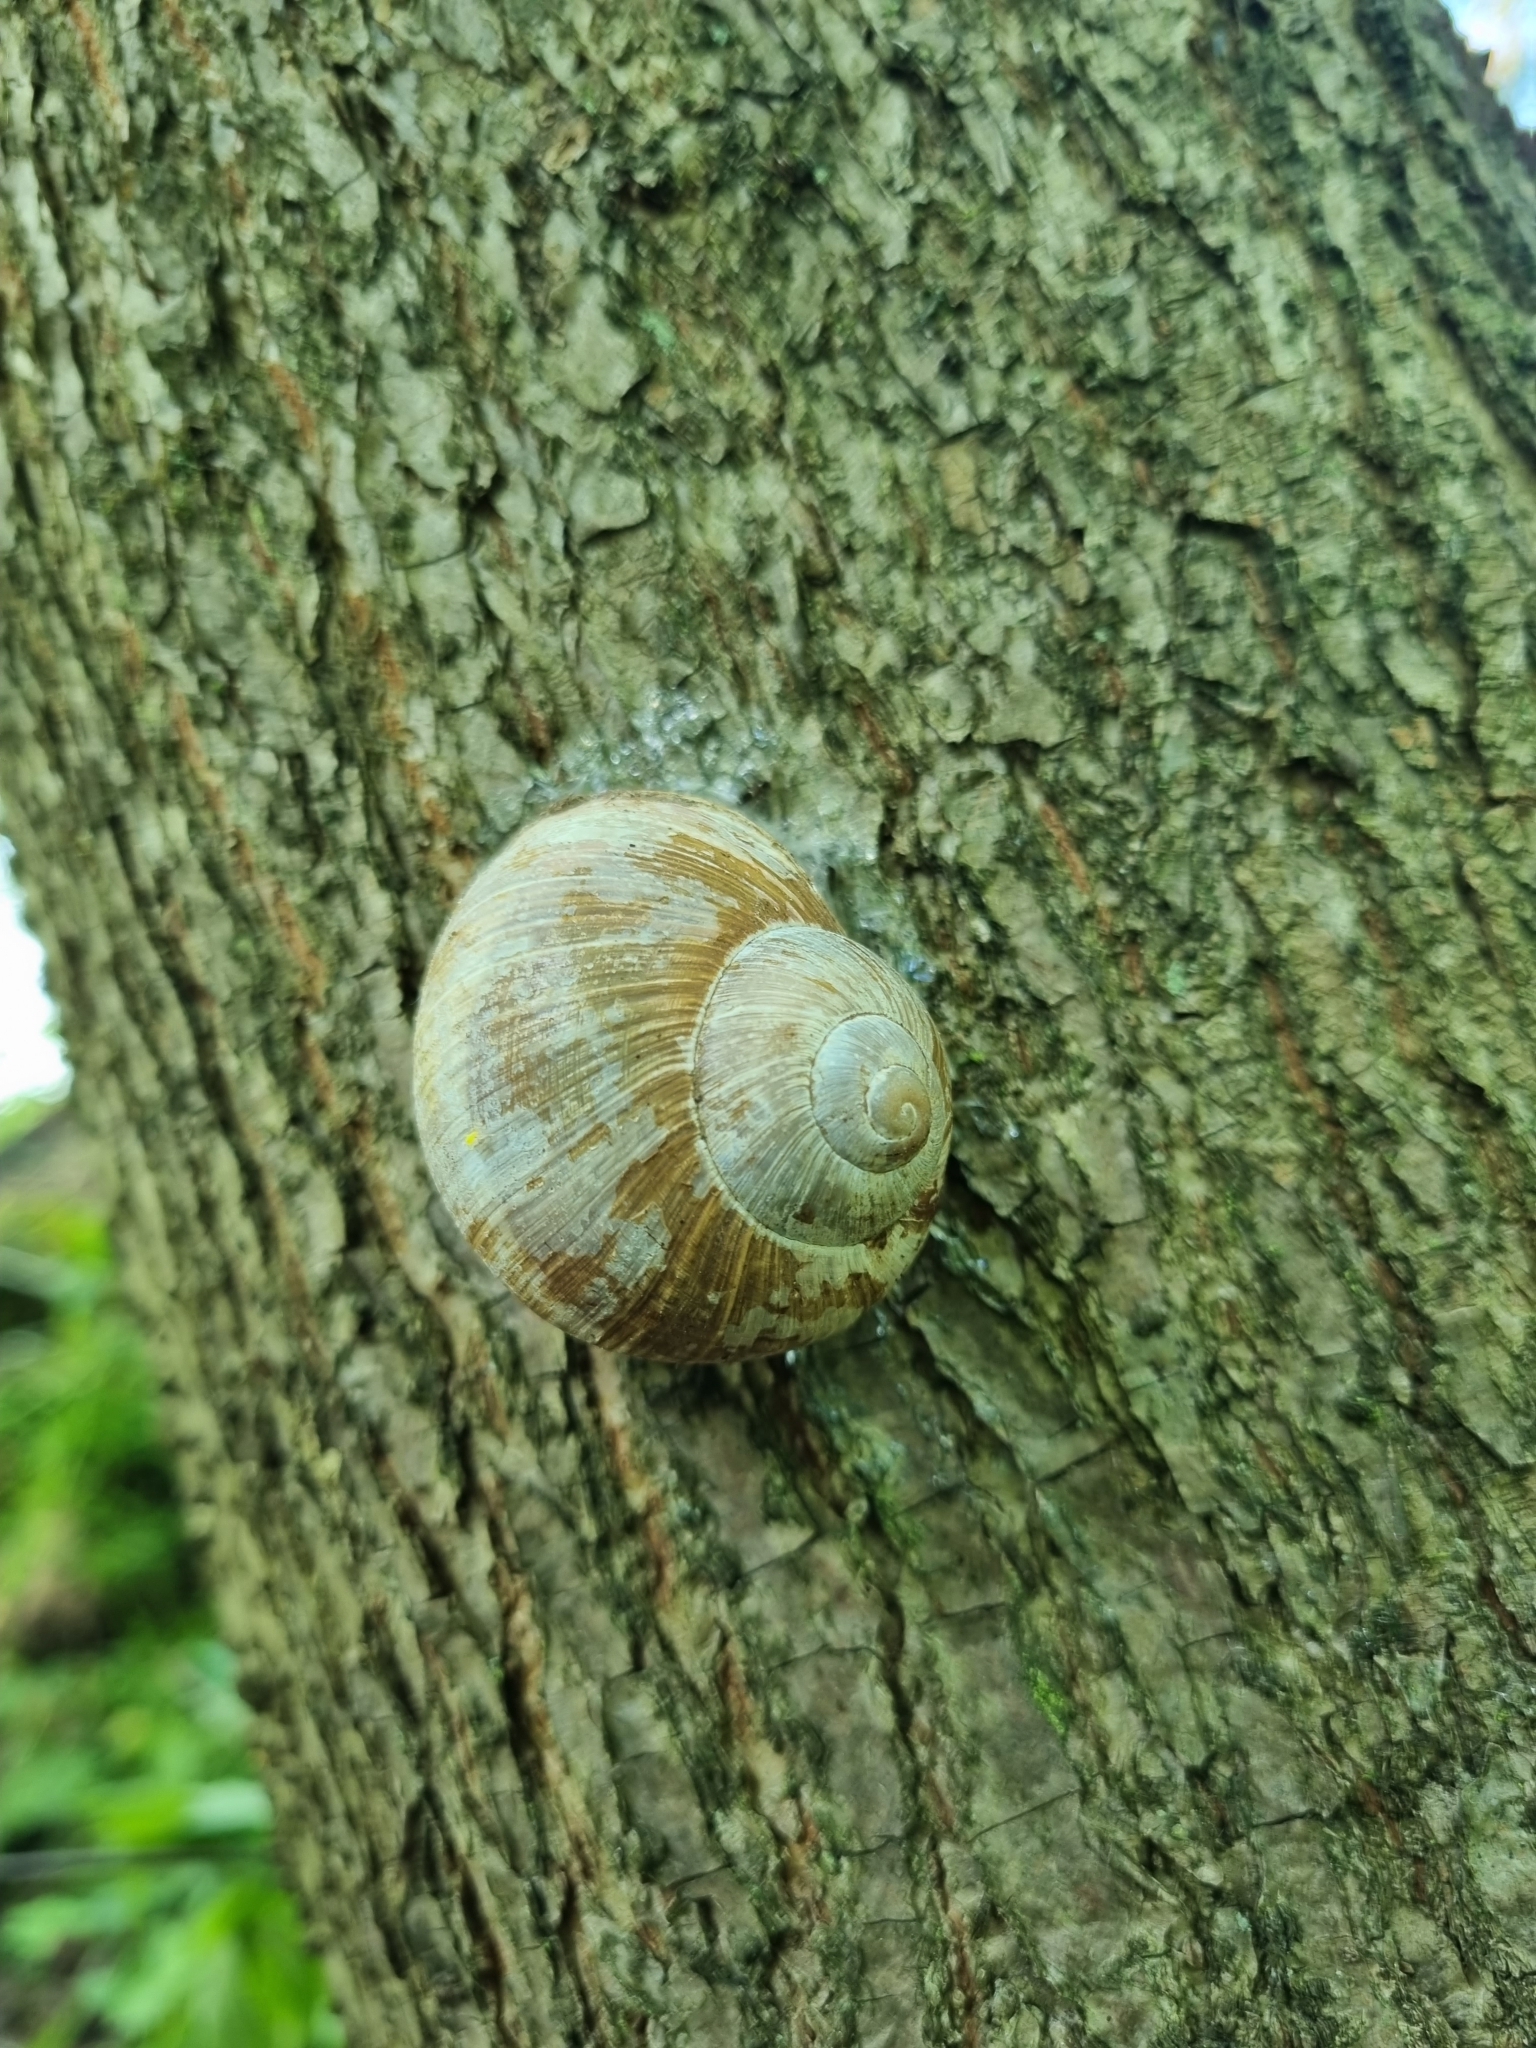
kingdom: Animalia
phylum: Mollusca
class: Gastropoda
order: Stylommatophora
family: Helicidae
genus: Helix
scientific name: Helix pomatia
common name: Roman snail
